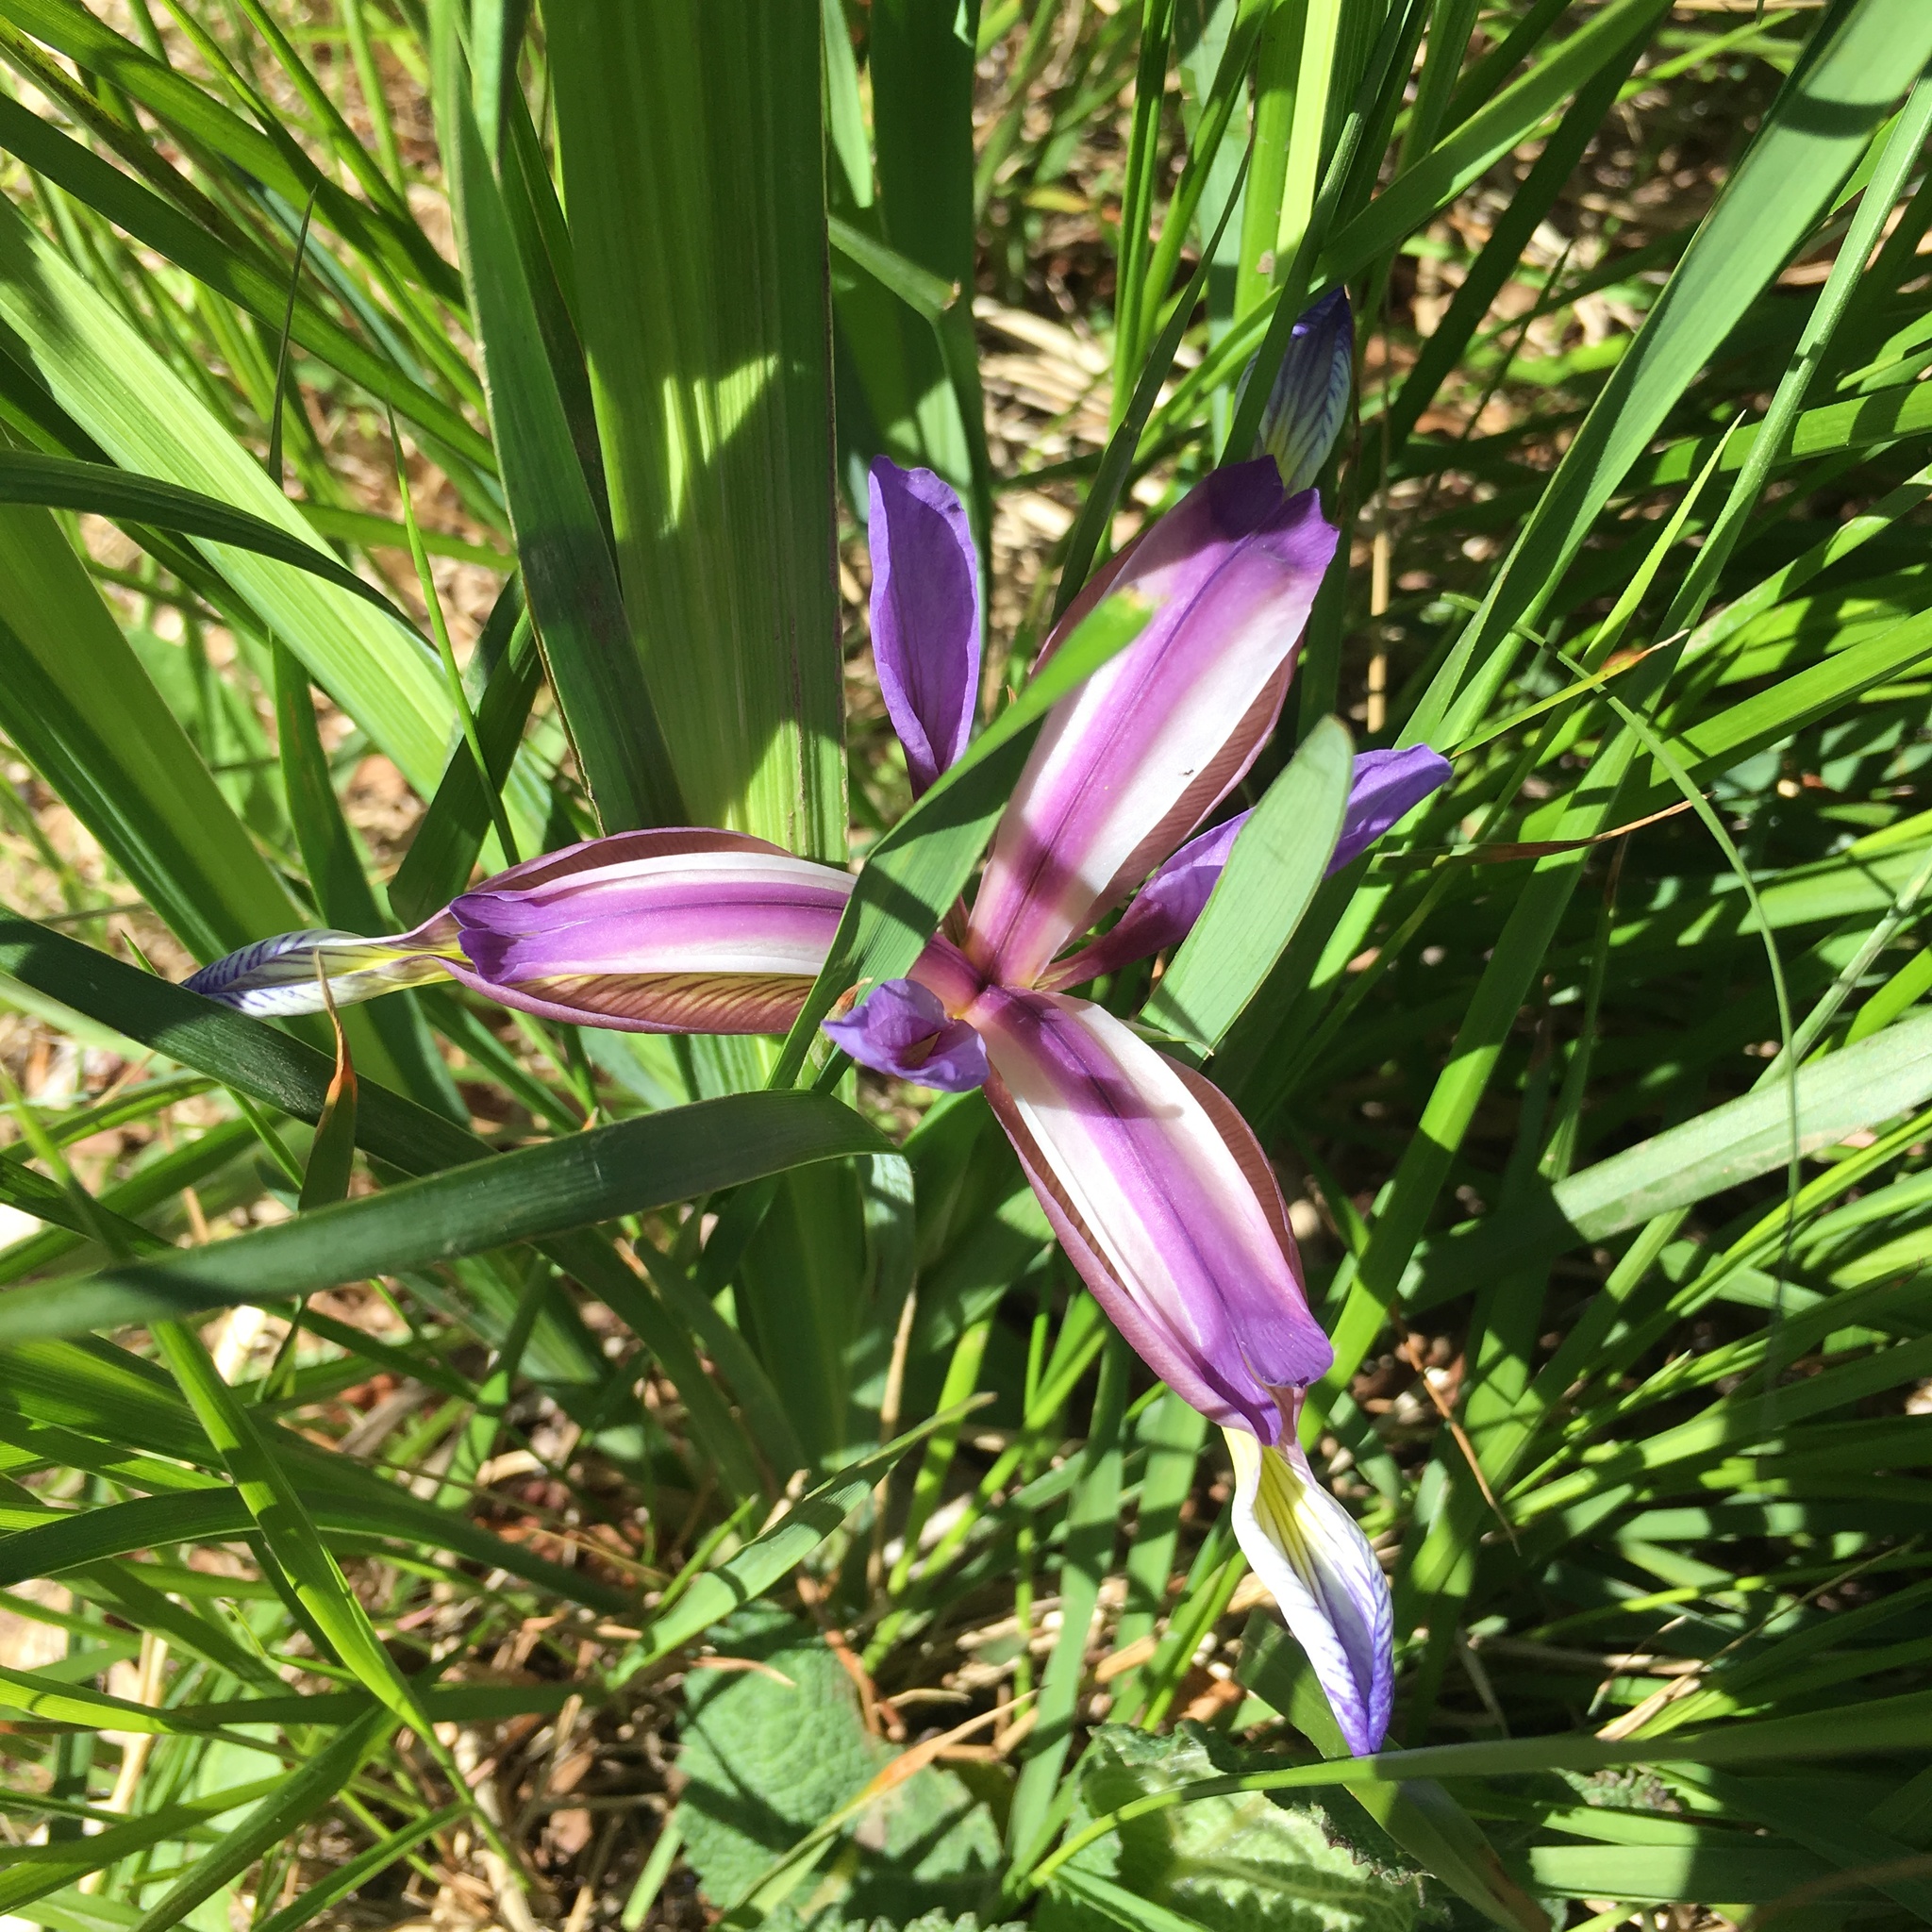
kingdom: Plantae
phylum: Tracheophyta
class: Liliopsida
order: Asparagales
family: Iridaceae
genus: Iris
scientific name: Iris graminea
